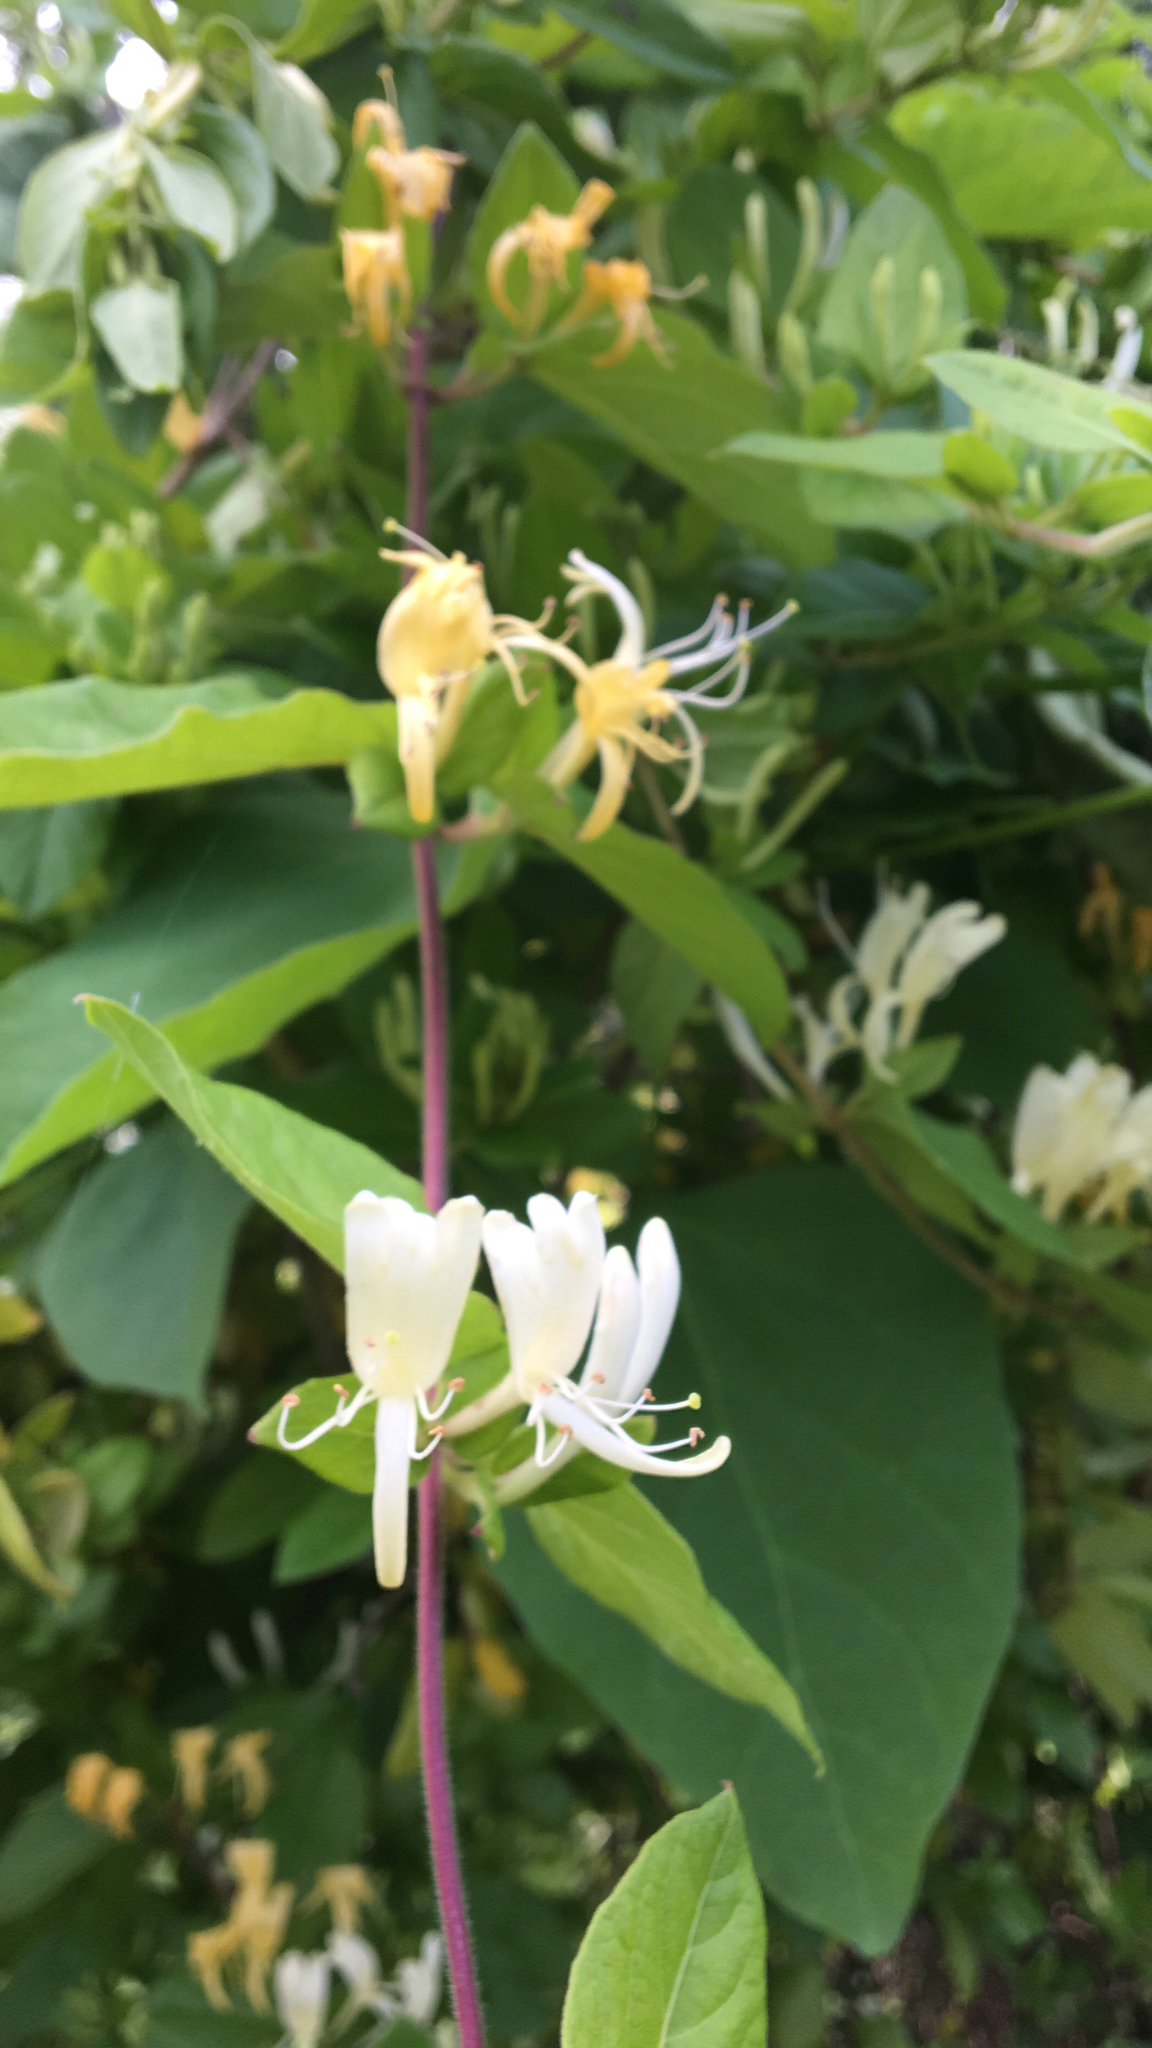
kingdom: Plantae
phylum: Tracheophyta
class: Magnoliopsida
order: Dipsacales
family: Caprifoliaceae
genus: Lonicera
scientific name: Lonicera japonica
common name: Japanese honeysuckle
